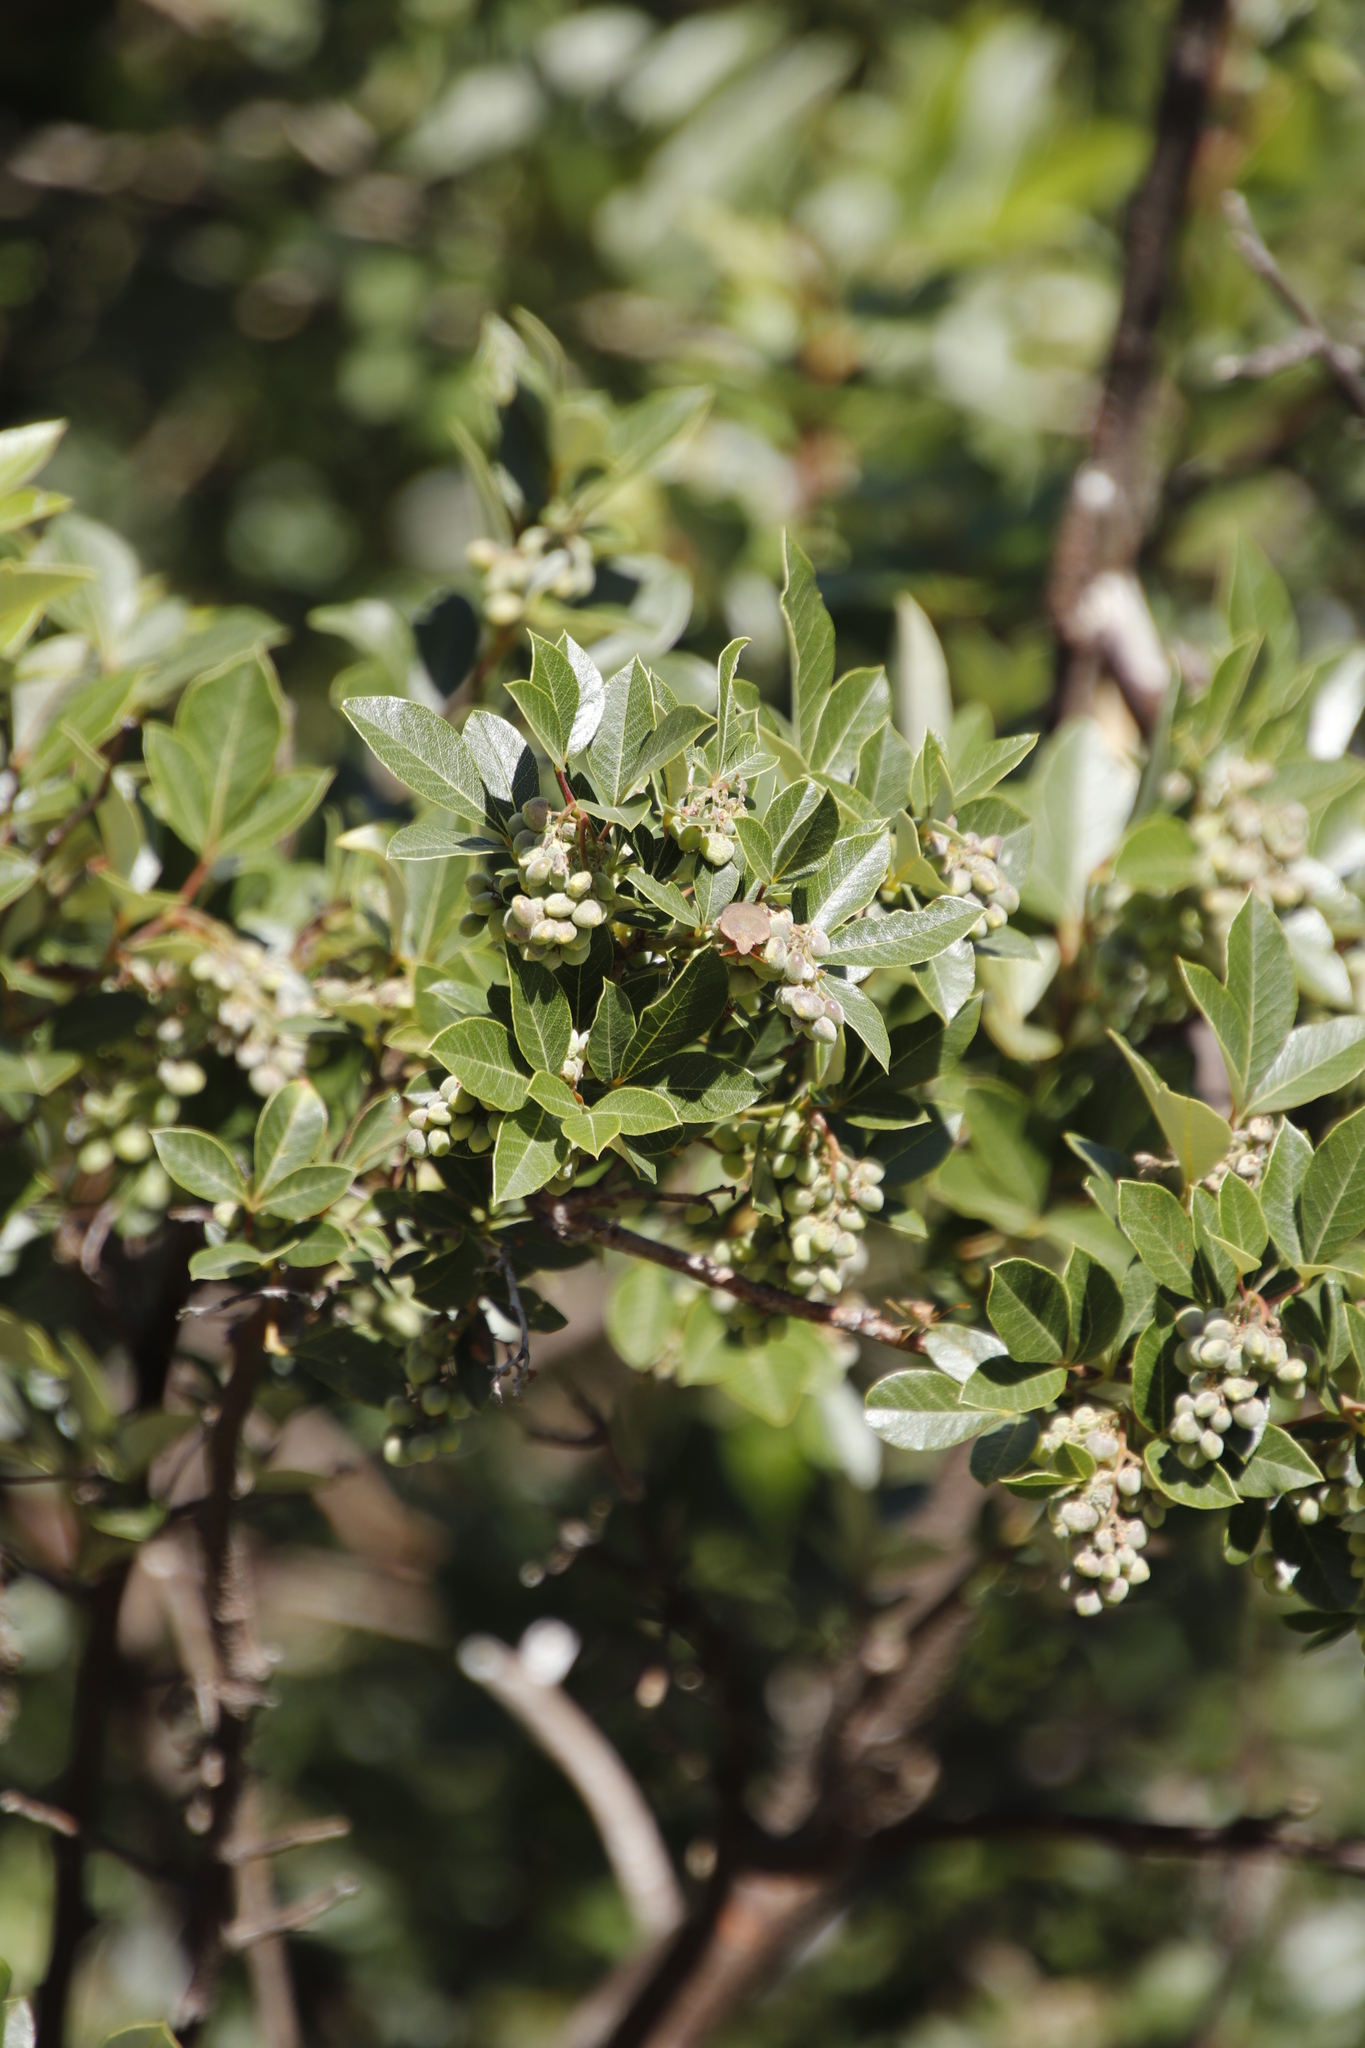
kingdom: Plantae
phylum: Tracheophyta
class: Magnoliopsida
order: Sapindales
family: Anacardiaceae
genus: Searsia
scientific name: Searsia tomentosa
